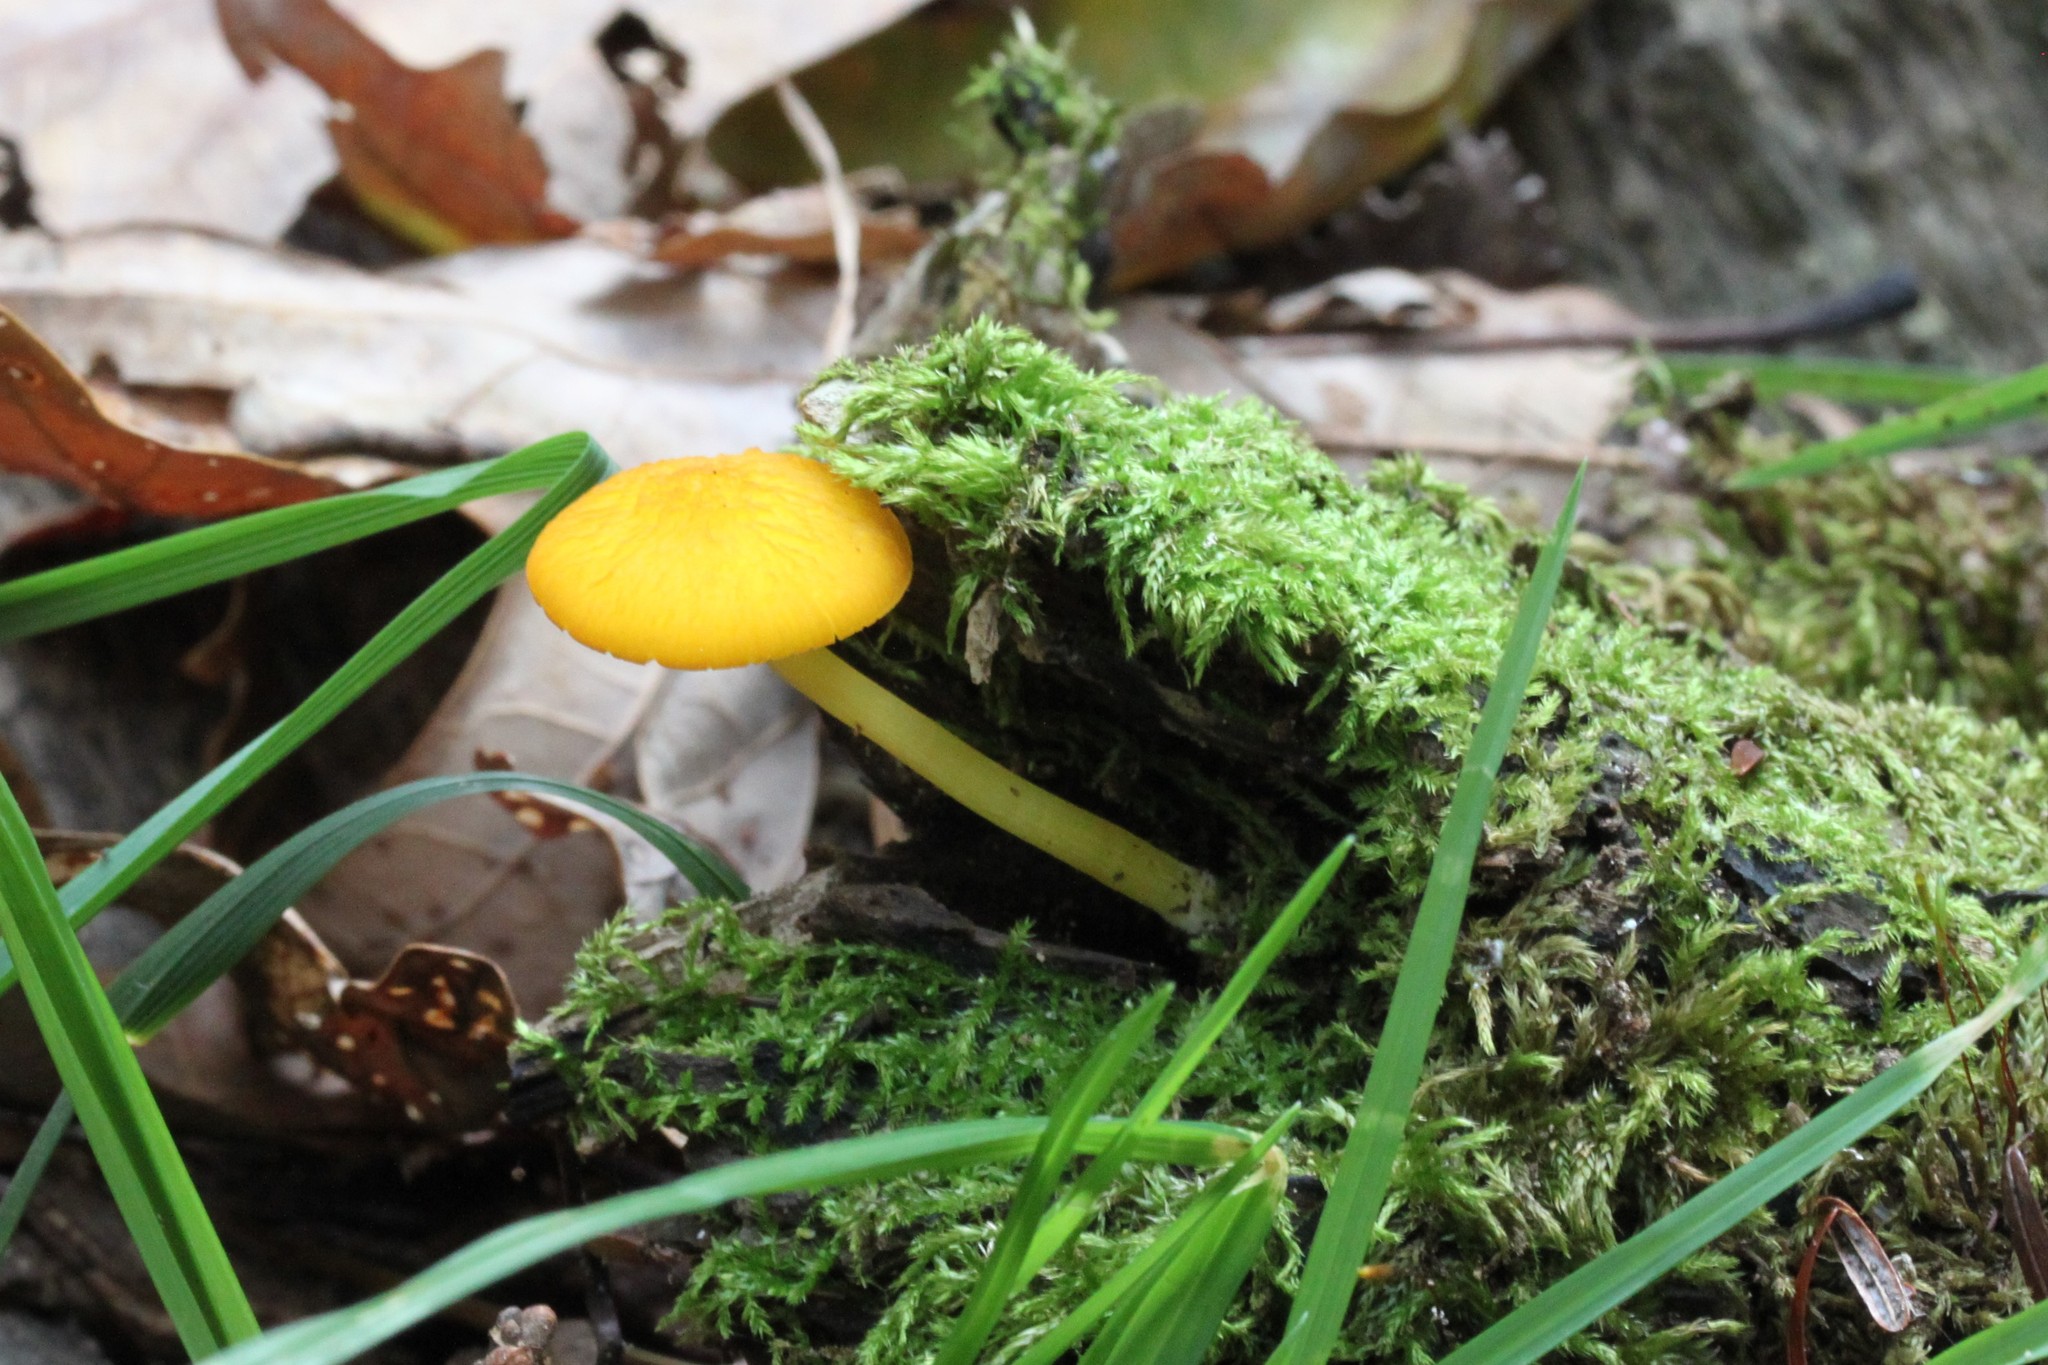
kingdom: Fungi
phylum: Basidiomycota
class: Agaricomycetes
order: Agaricales
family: Pluteaceae
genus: Pluteus
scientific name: Pluteus admirabilis
